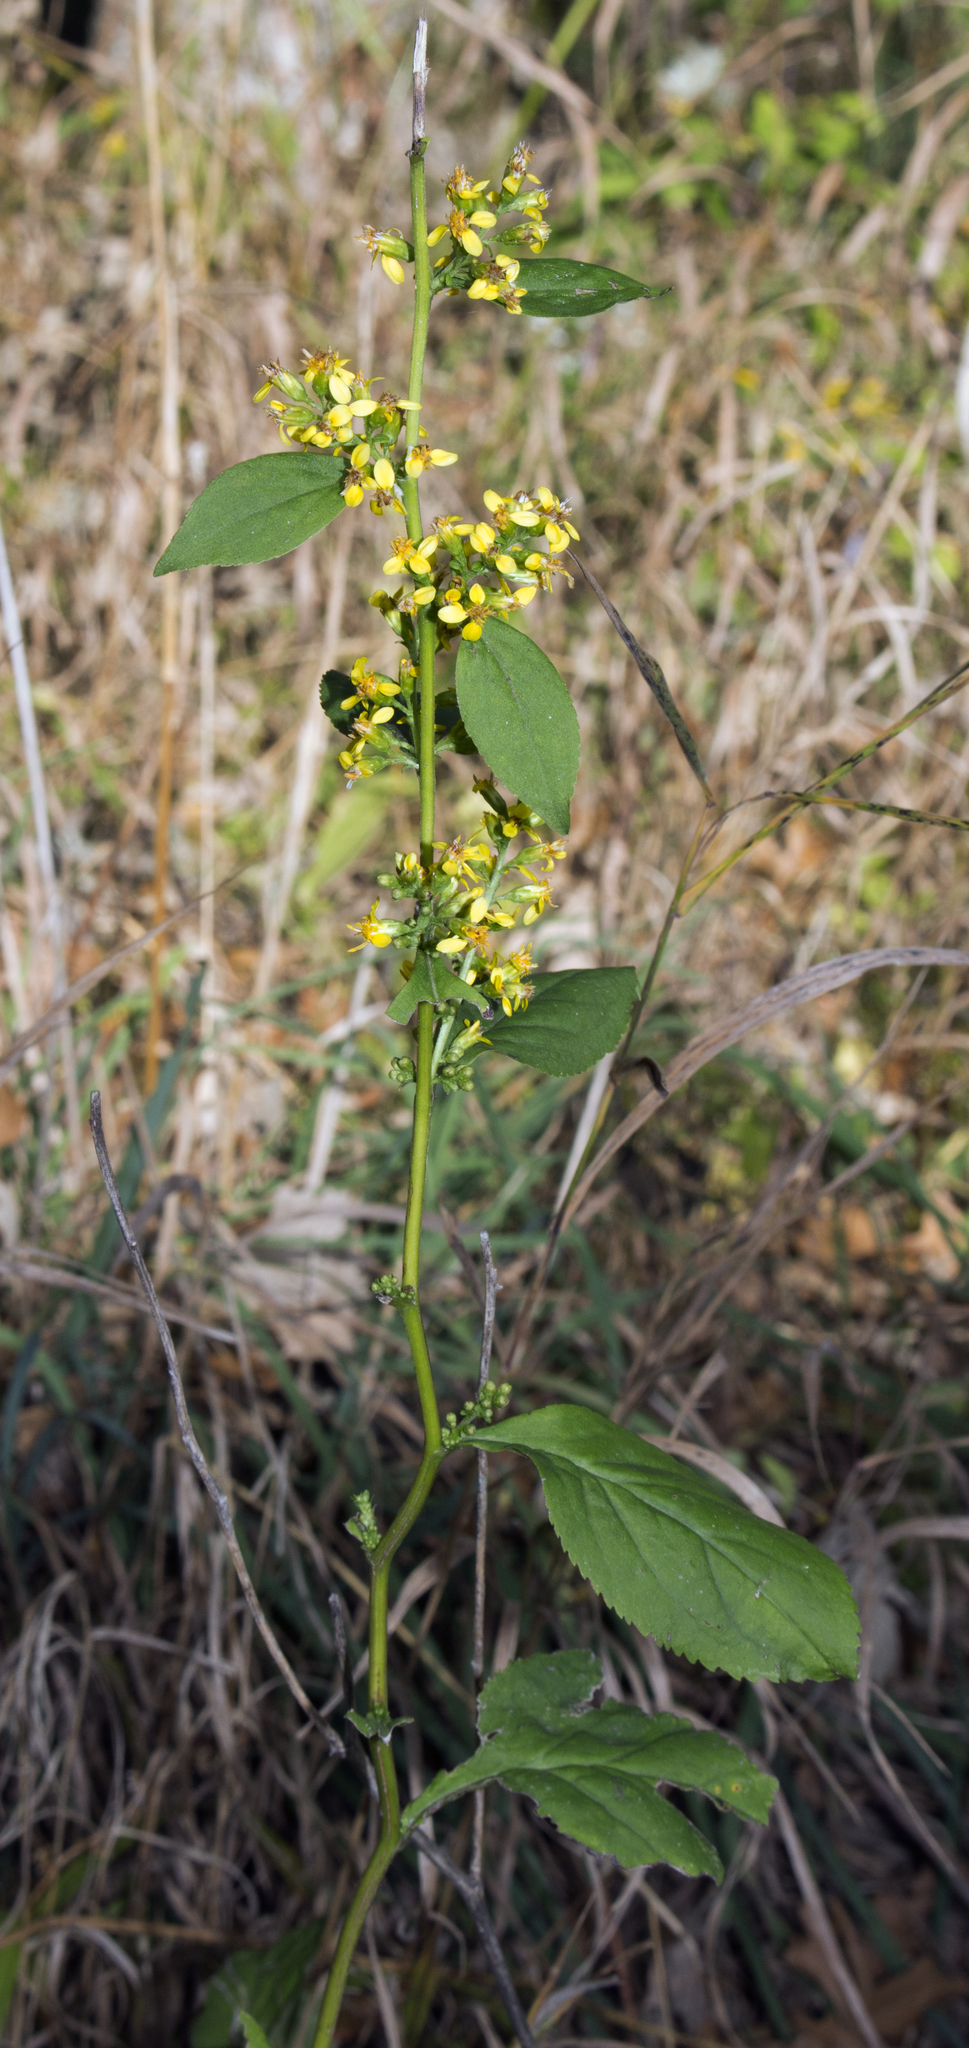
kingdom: Plantae
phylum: Tracheophyta
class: Magnoliopsida
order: Asterales
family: Asteraceae
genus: Solidago
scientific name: Solidago flexicaulis
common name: Zig-zag goldenrod
